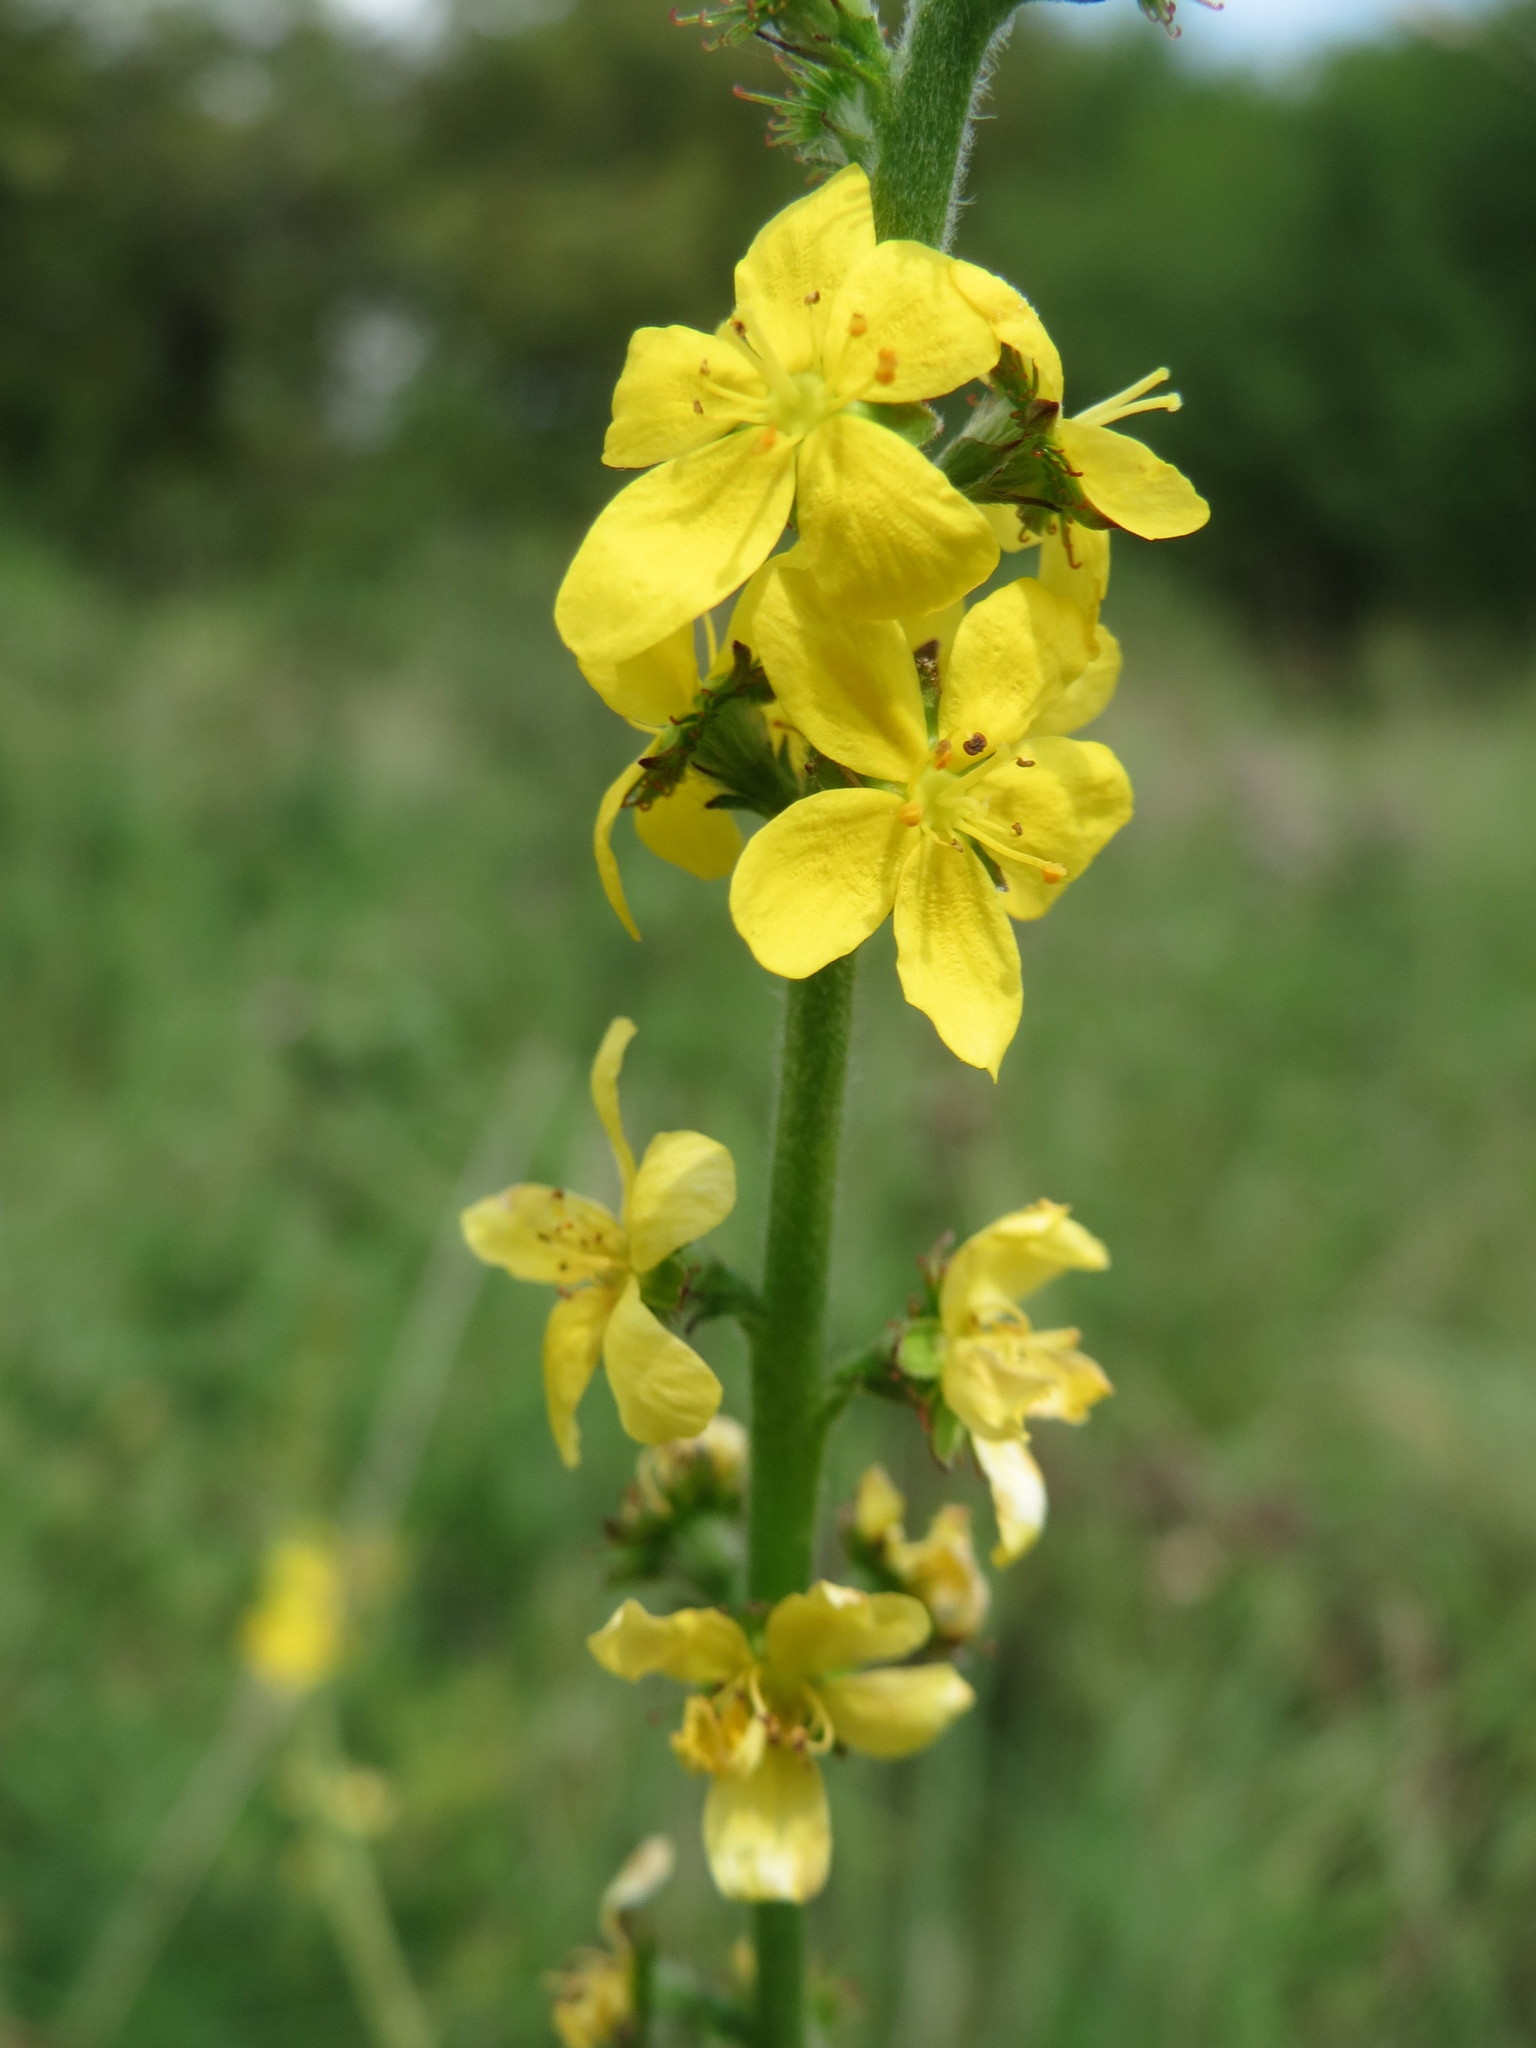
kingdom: Plantae
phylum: Tracheophyta
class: Magnoliopsida
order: Rosales
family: Rosaceae
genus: Agrimonia
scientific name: Agrimonia eupatoria
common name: Agrimony
